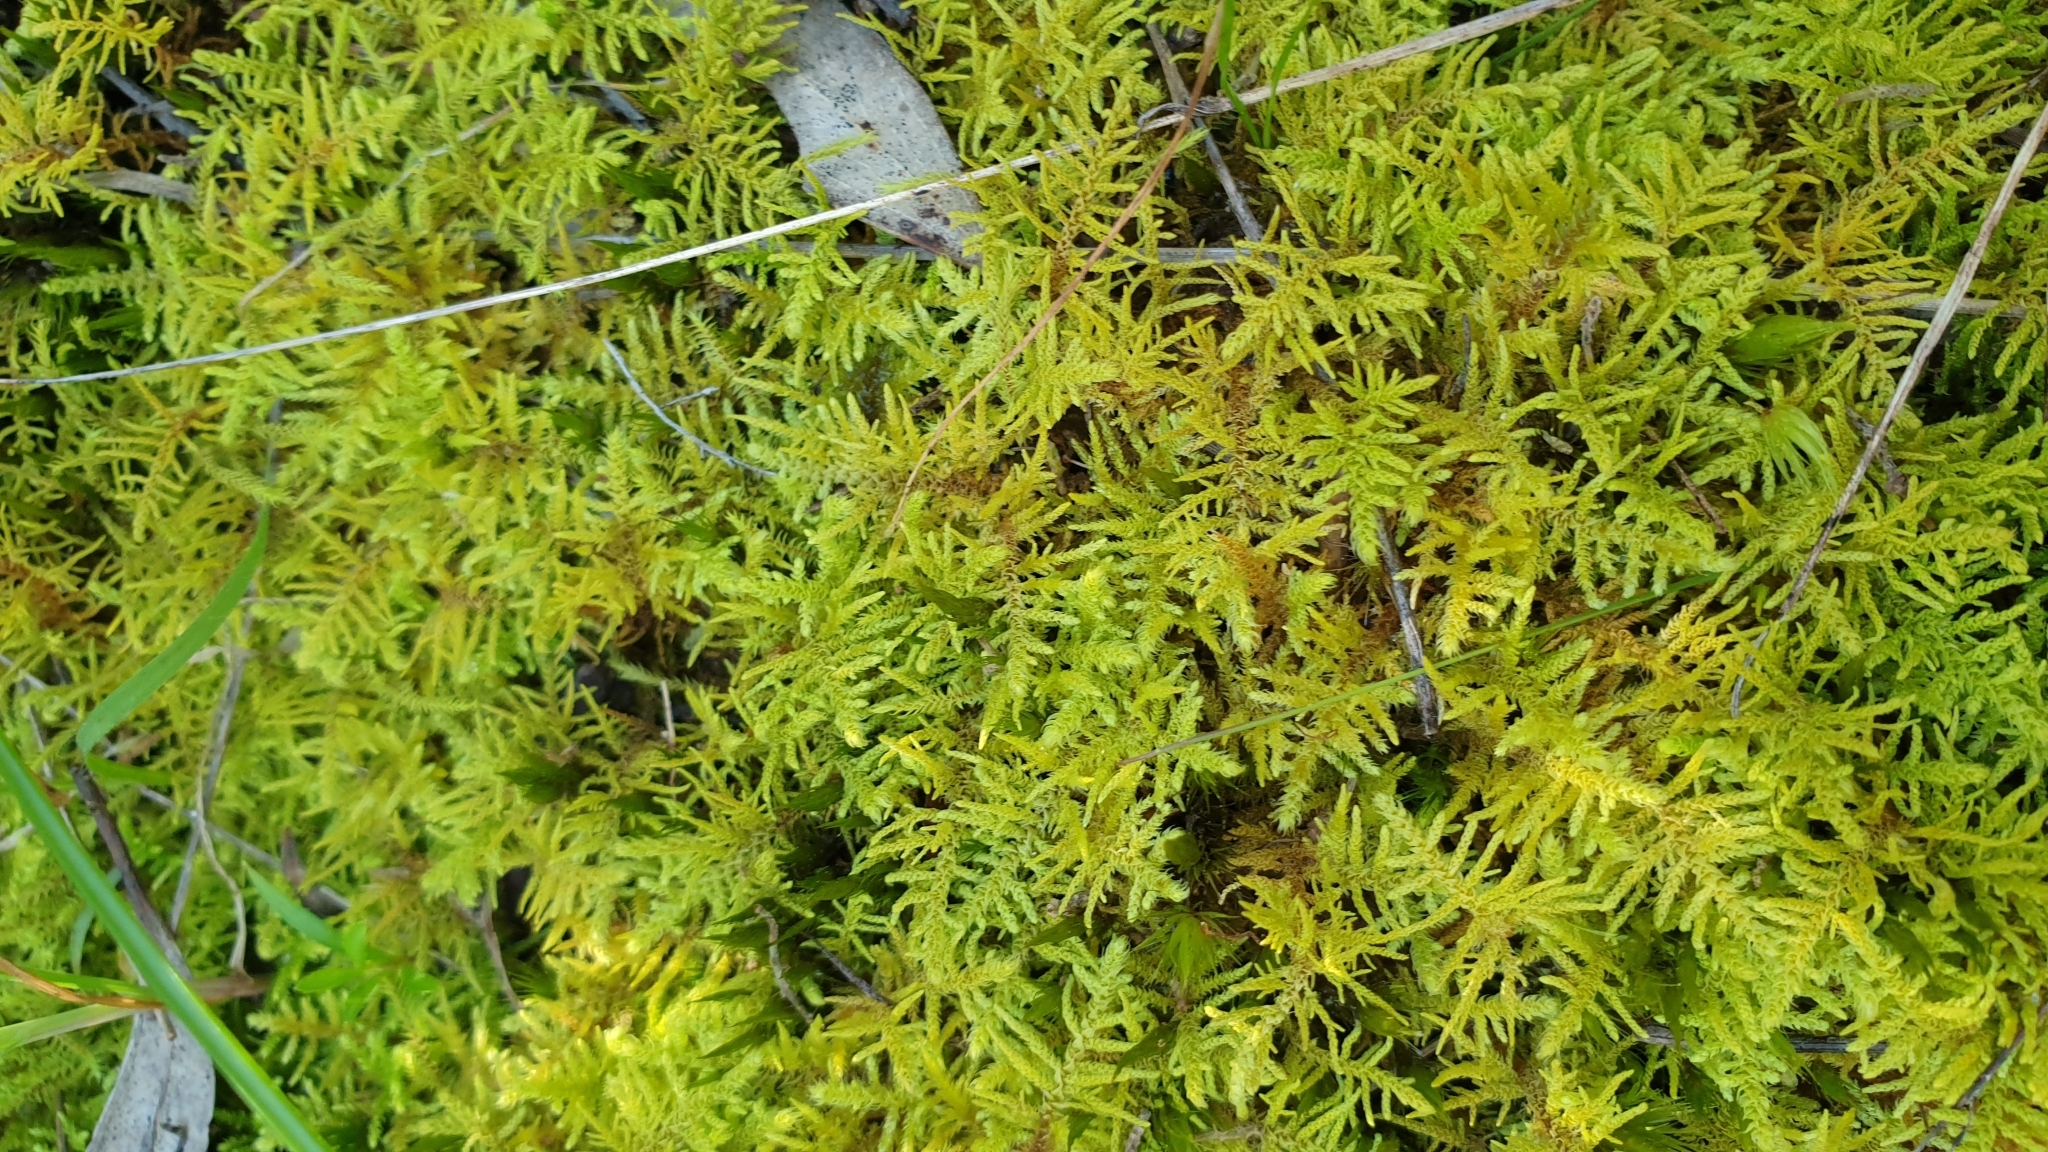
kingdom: Plantae
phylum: Bryophyta
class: Bryopsida
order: Hypnales
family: Thuidiaceae
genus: Thuidiopsis
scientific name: Thuidiopsis sparsa
